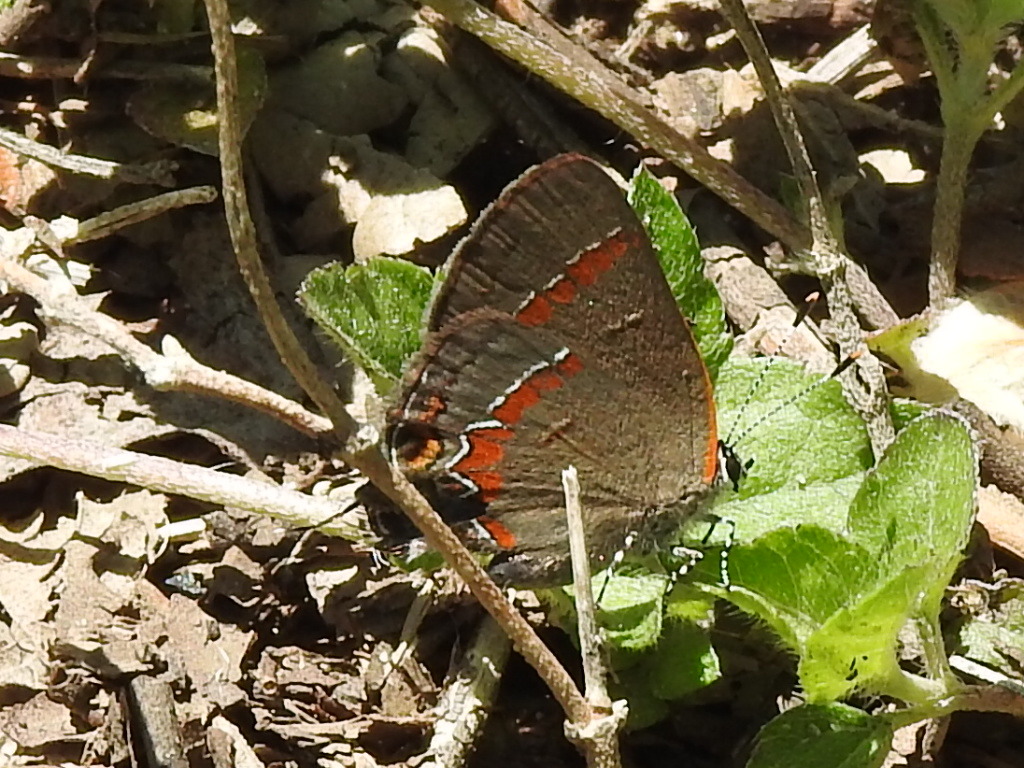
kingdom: Animalia
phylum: Arthropoda
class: Insecta
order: Lepidoptera
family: Lycaenidae
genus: Calycopis
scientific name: Calycopis cecrops
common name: Red-banded hairstreak
